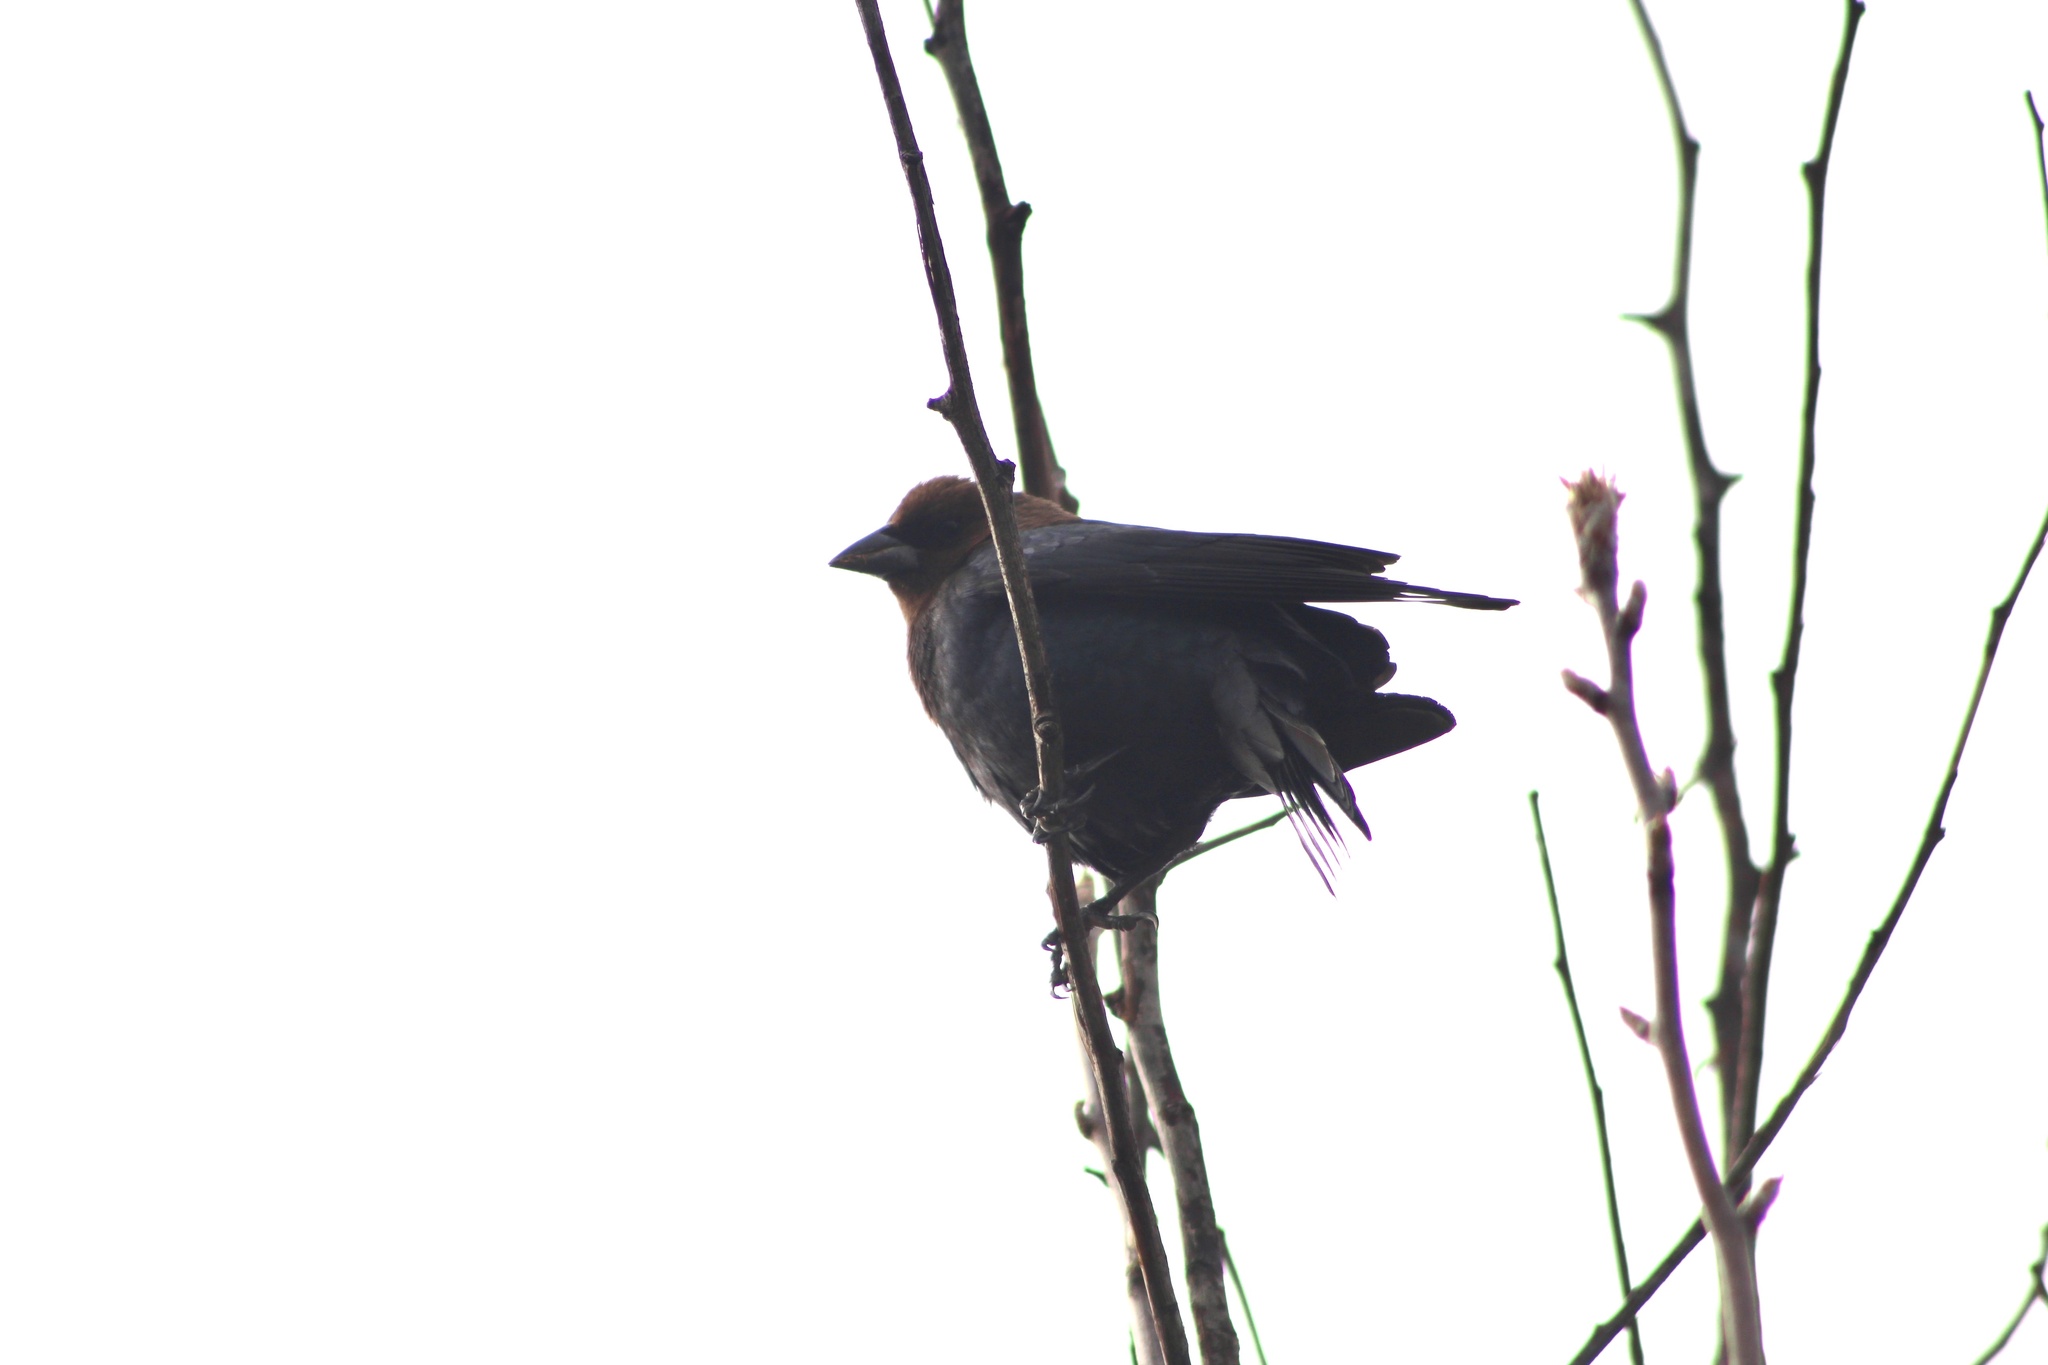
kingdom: Animalia
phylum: Chordata
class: Aves
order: Passeriformes
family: Icteridae
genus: Molothrus
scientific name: Molothrus ater
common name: Brown-headed cowbird
